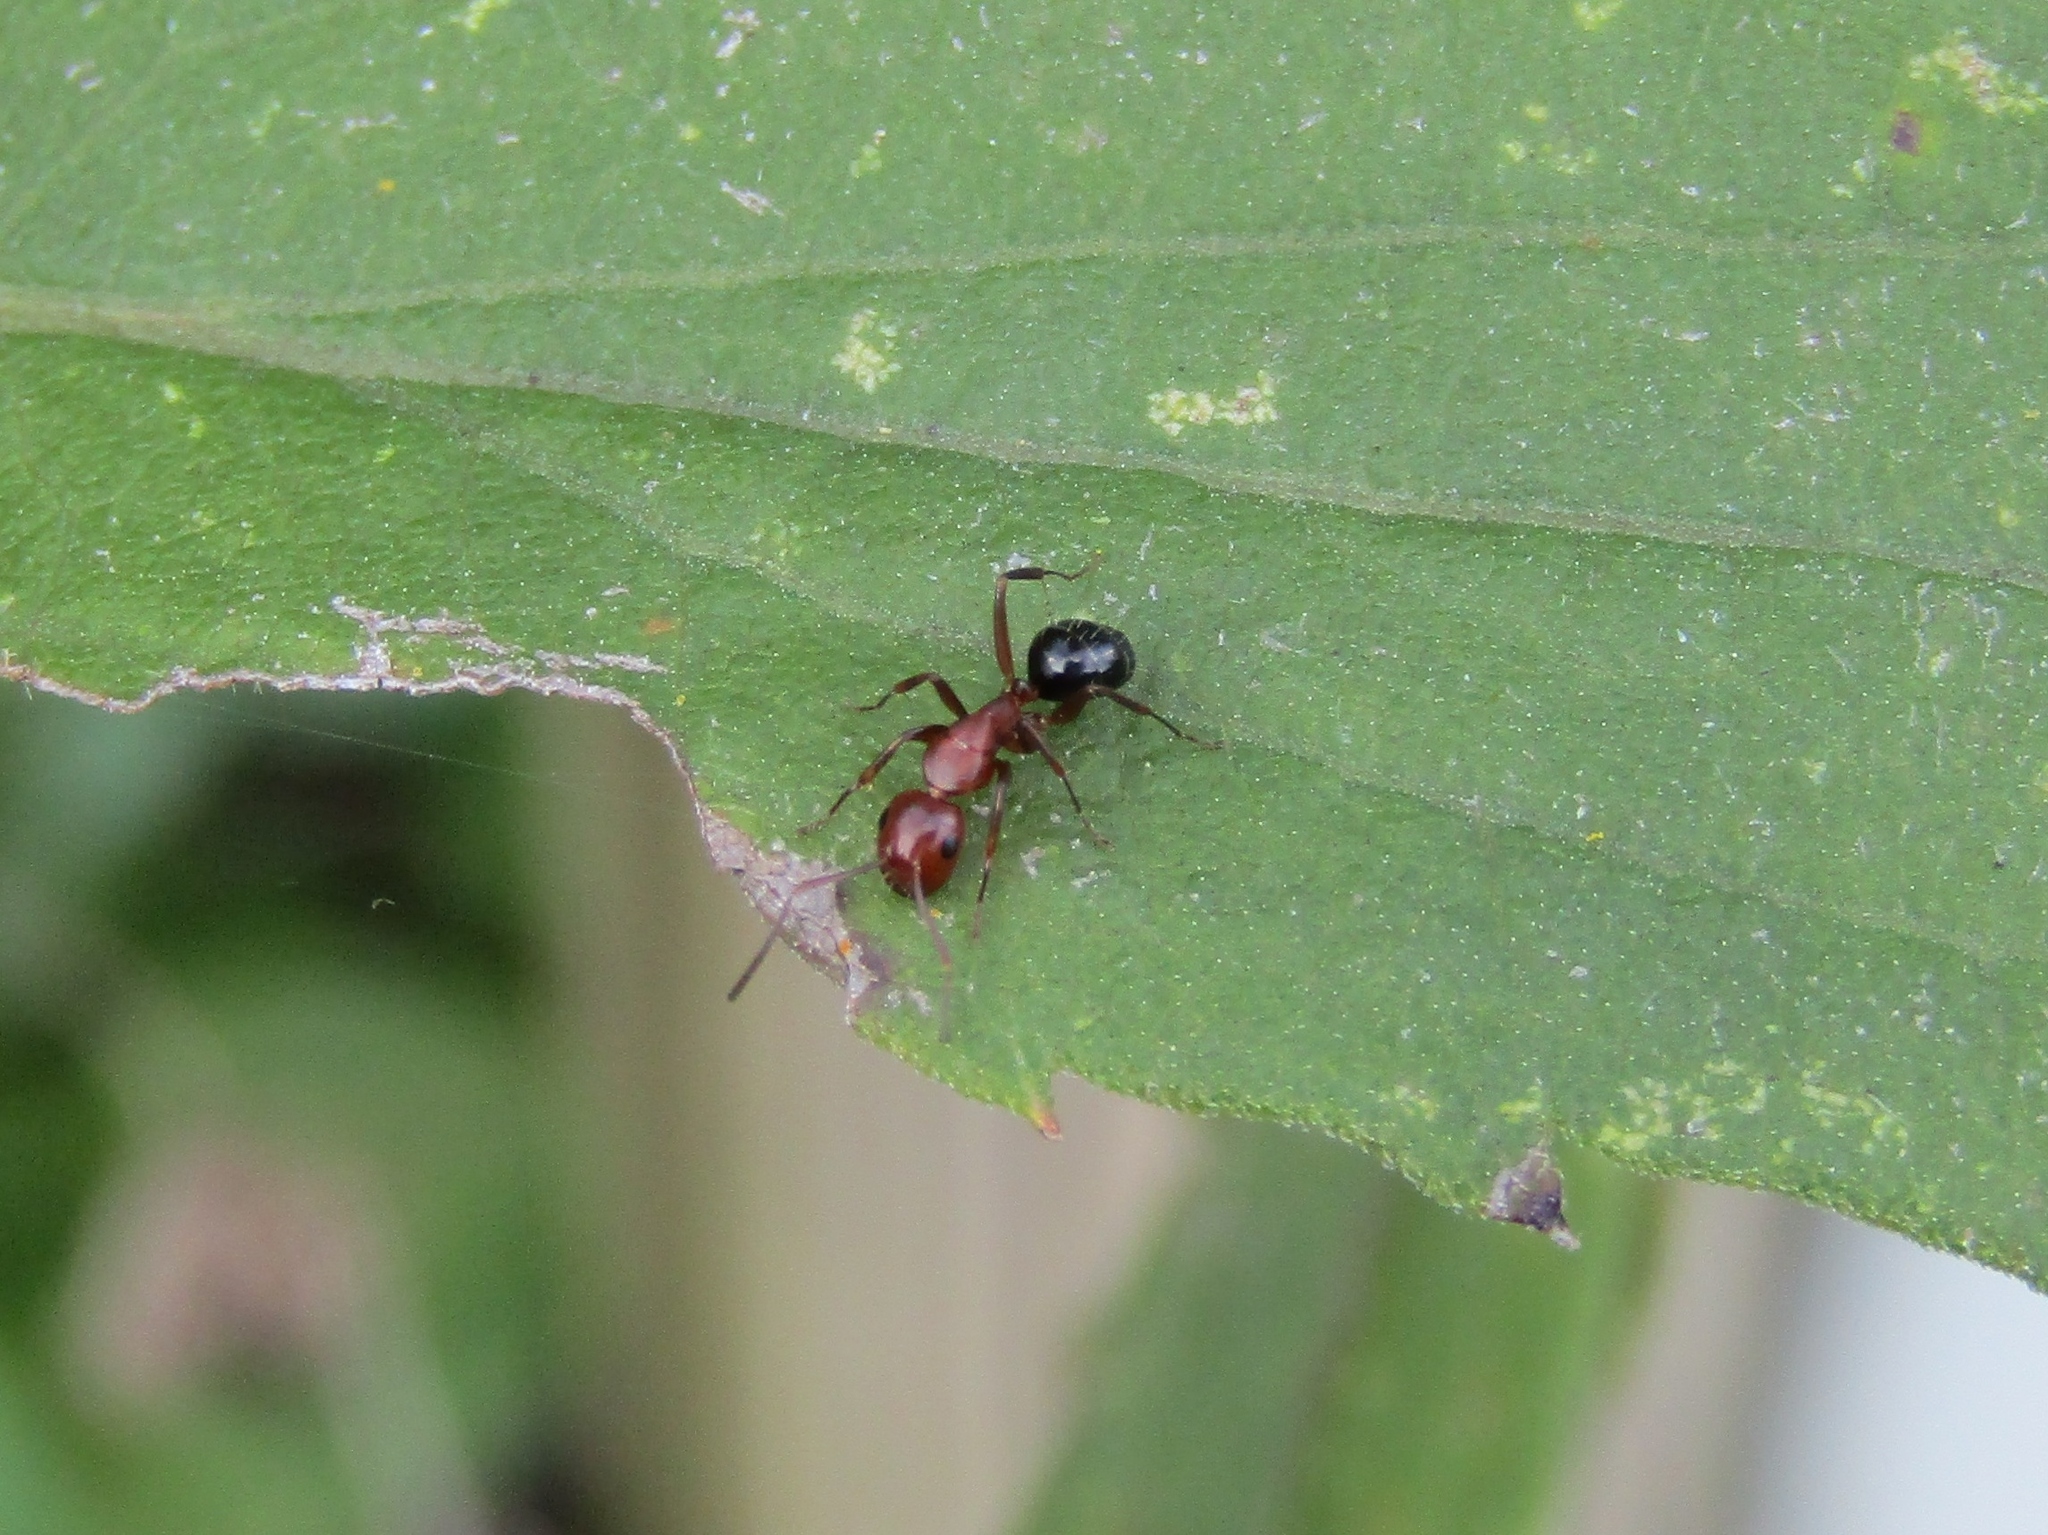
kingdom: Animalia
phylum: Arthropoda
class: Insecta
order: Hymenoptera
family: Formicidae
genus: Camponotus
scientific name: Camponotus decipiens
